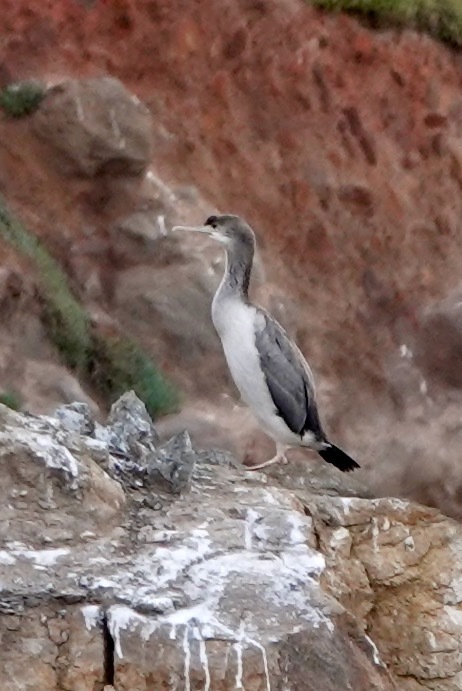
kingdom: Animalia
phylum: Chordata
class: Aves
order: Suliformes
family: Phalacrocoracidae
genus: Phalacrocorax
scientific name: Phalacrocorax punctatus
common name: Spotted shag
